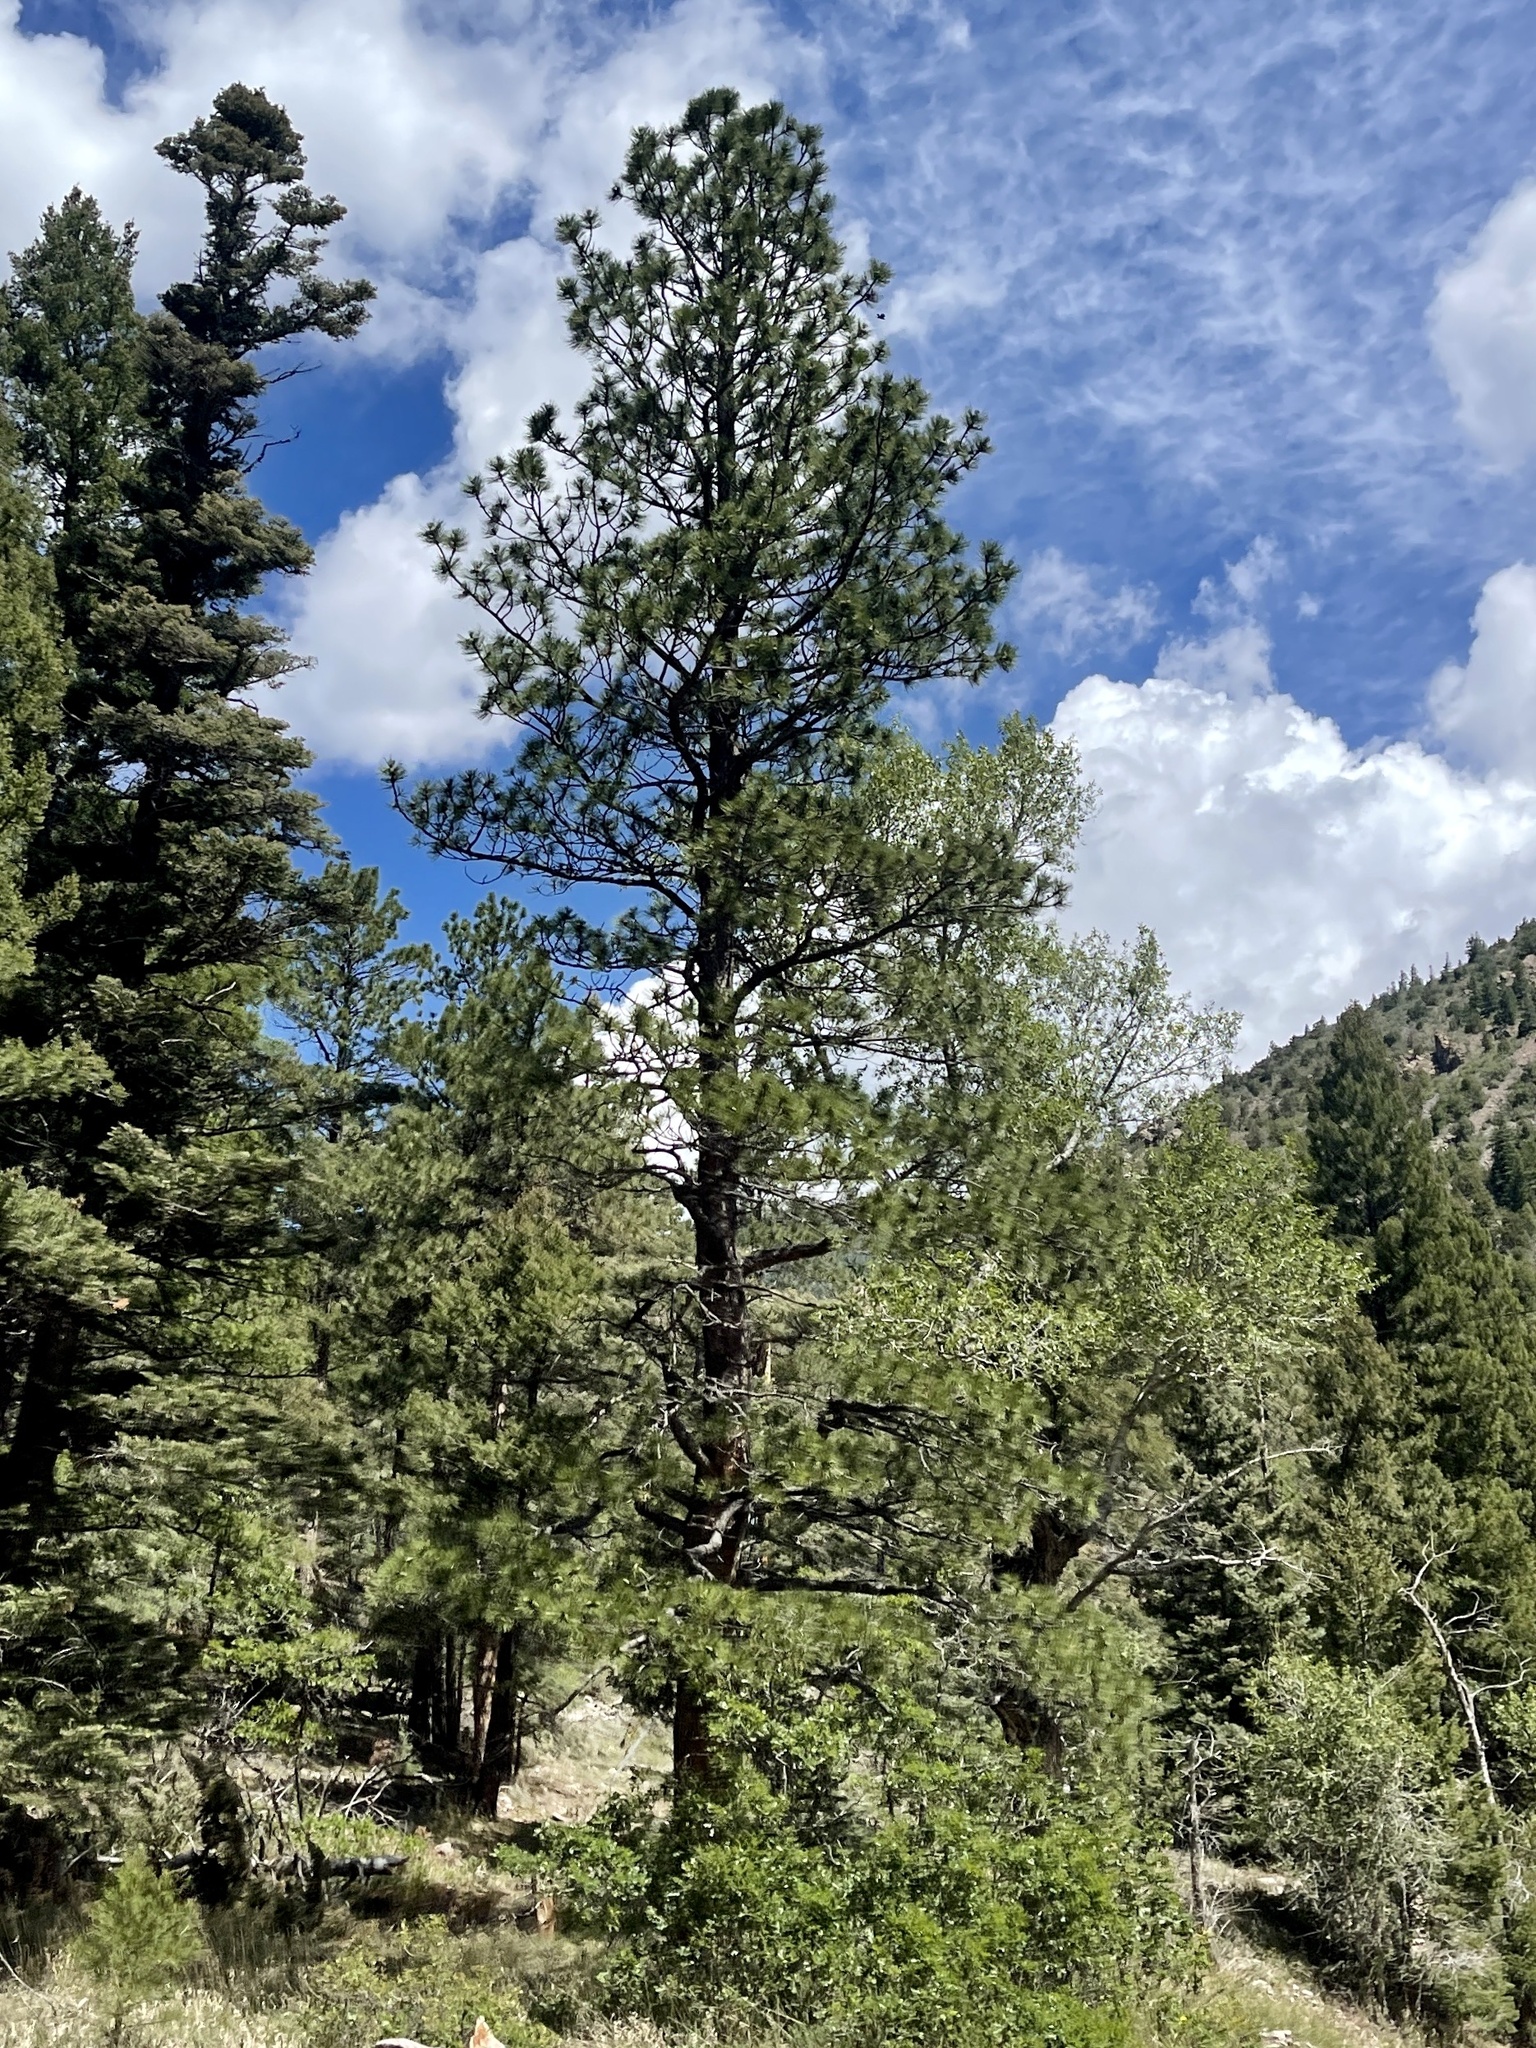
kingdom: Plantae
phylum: Tracheophyta
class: Pinopsida
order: Pinales
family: Pinaceae
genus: Pinus
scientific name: Pinus ponderosa
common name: Western yellow-pine
